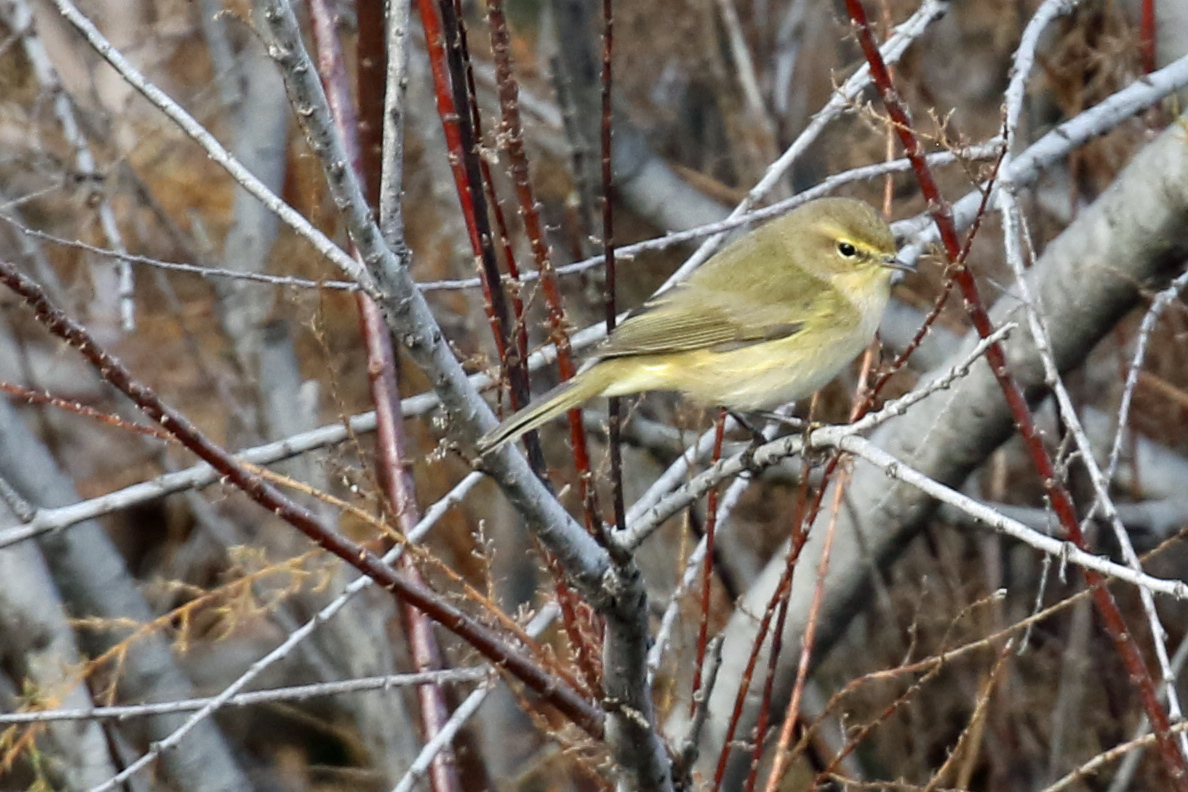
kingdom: Animalia
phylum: Chordata
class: Aves
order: Passeriformes
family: Phylloscopidae
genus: Phylloscopus
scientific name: Phylloscopus collybita
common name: Common chiffchaff
